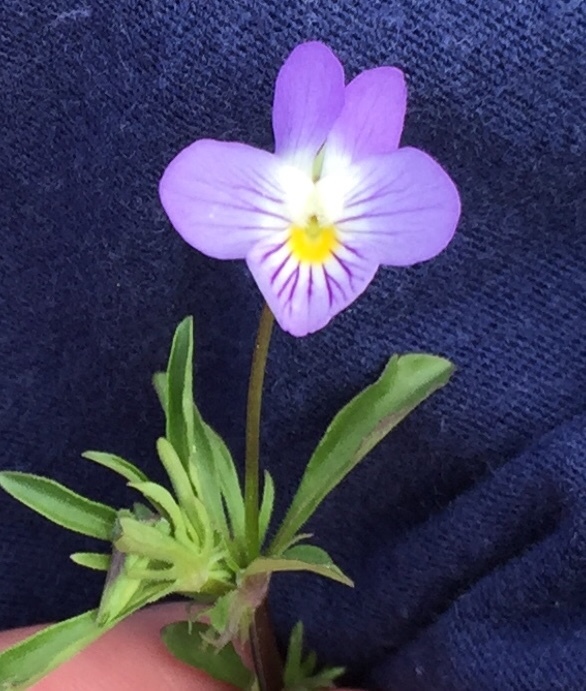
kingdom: Plantae
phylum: Tracheophyta
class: Magnoliopsida
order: Malpighiales
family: Violaceae
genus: Viola
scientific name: Viola rafinesquei
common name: American field pansy
